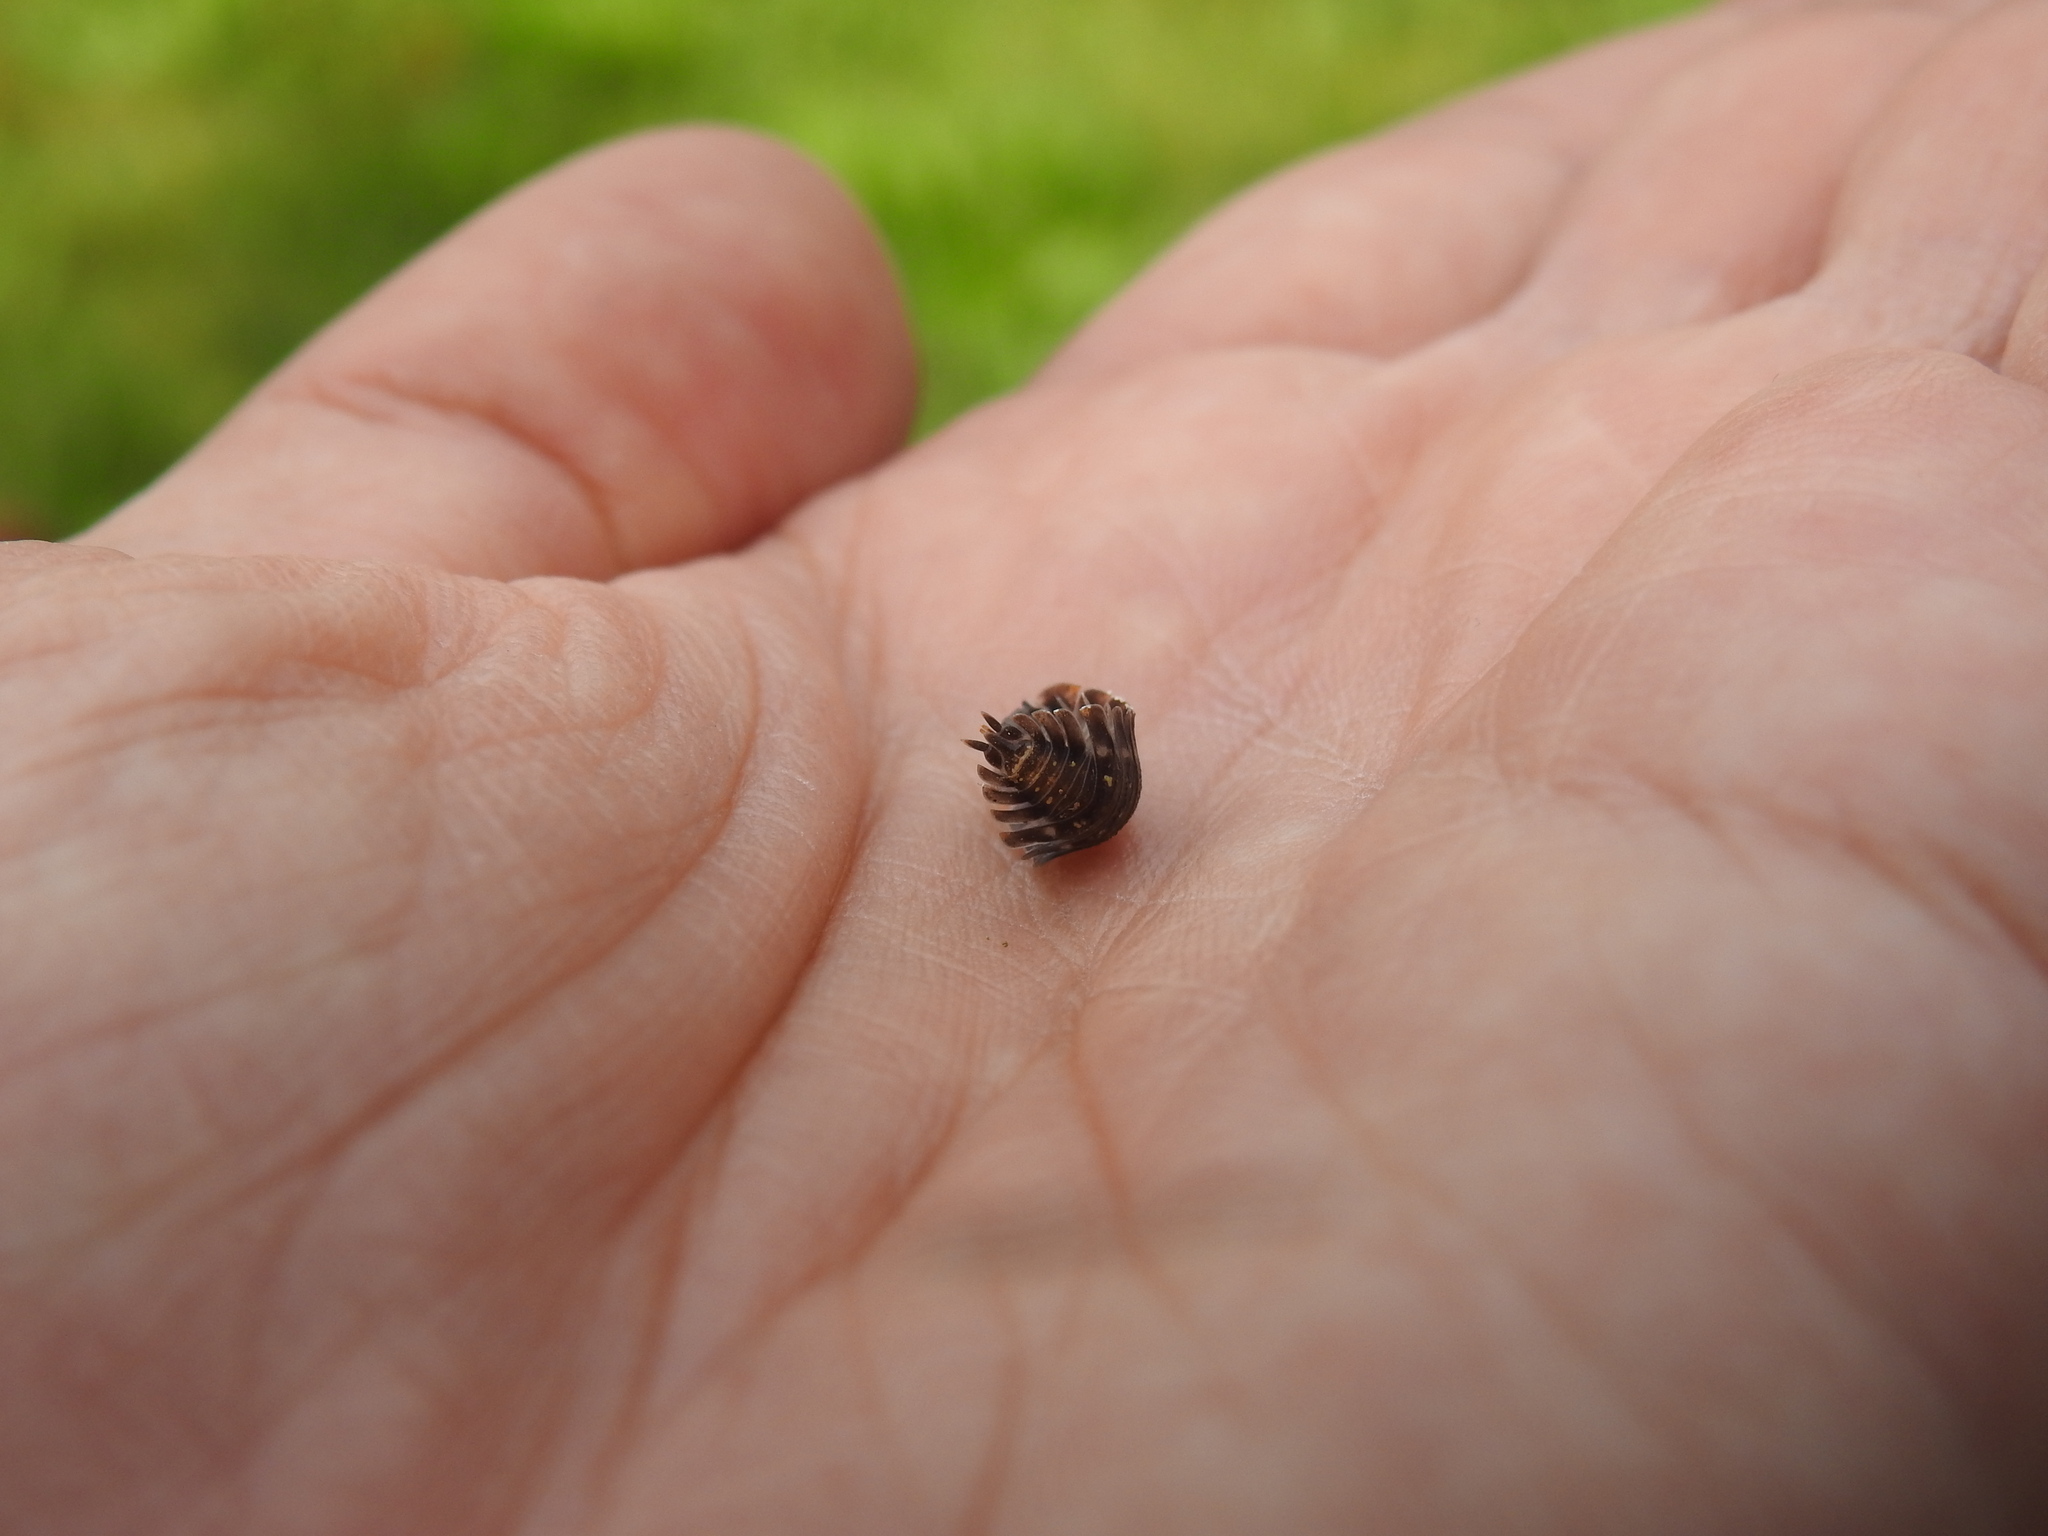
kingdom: Animalia
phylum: Arthropoda
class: Malacostraca
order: Isopoda
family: Oniscidae
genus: Oniscus
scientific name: Oniscus asellus
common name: Common shiny woodlouse
